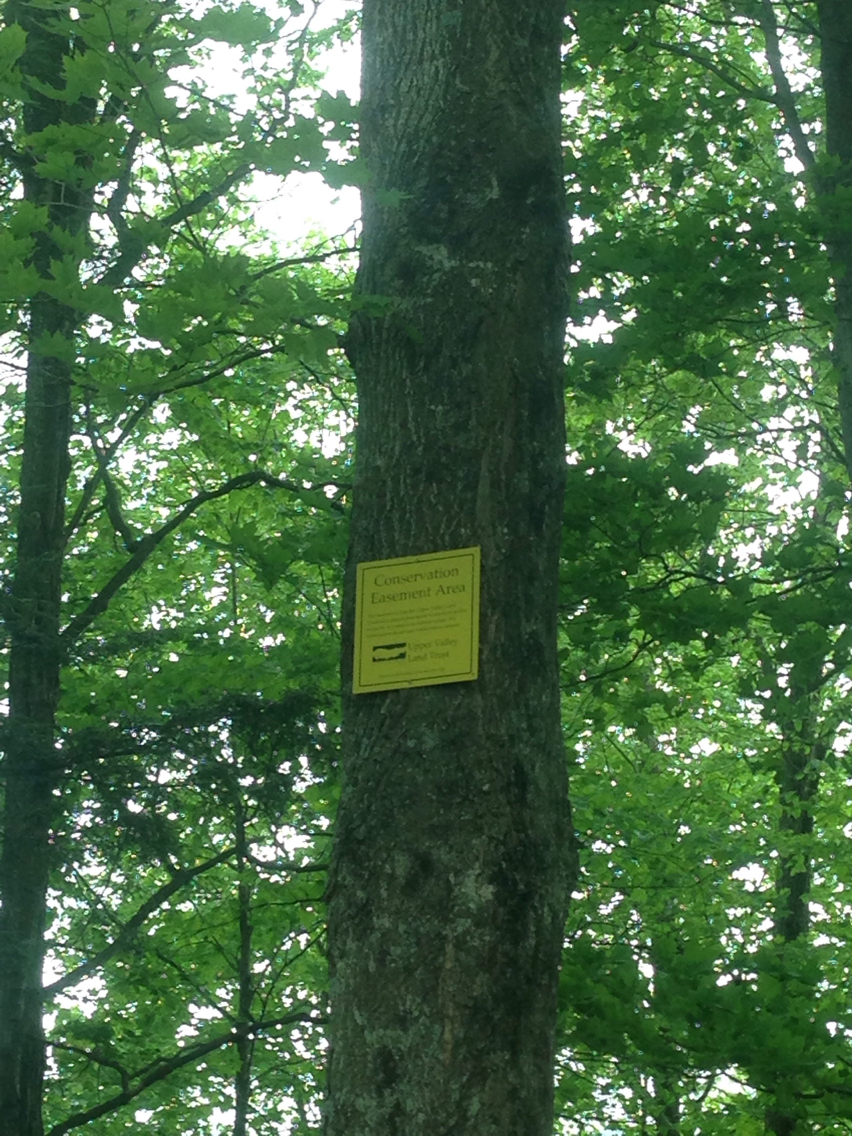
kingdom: Plantae
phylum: Tracheophyta
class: Magnoliopsida
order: Sapindales
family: Sapindaceae
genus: Acer
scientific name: Acer saccharum
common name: Sugar maple
